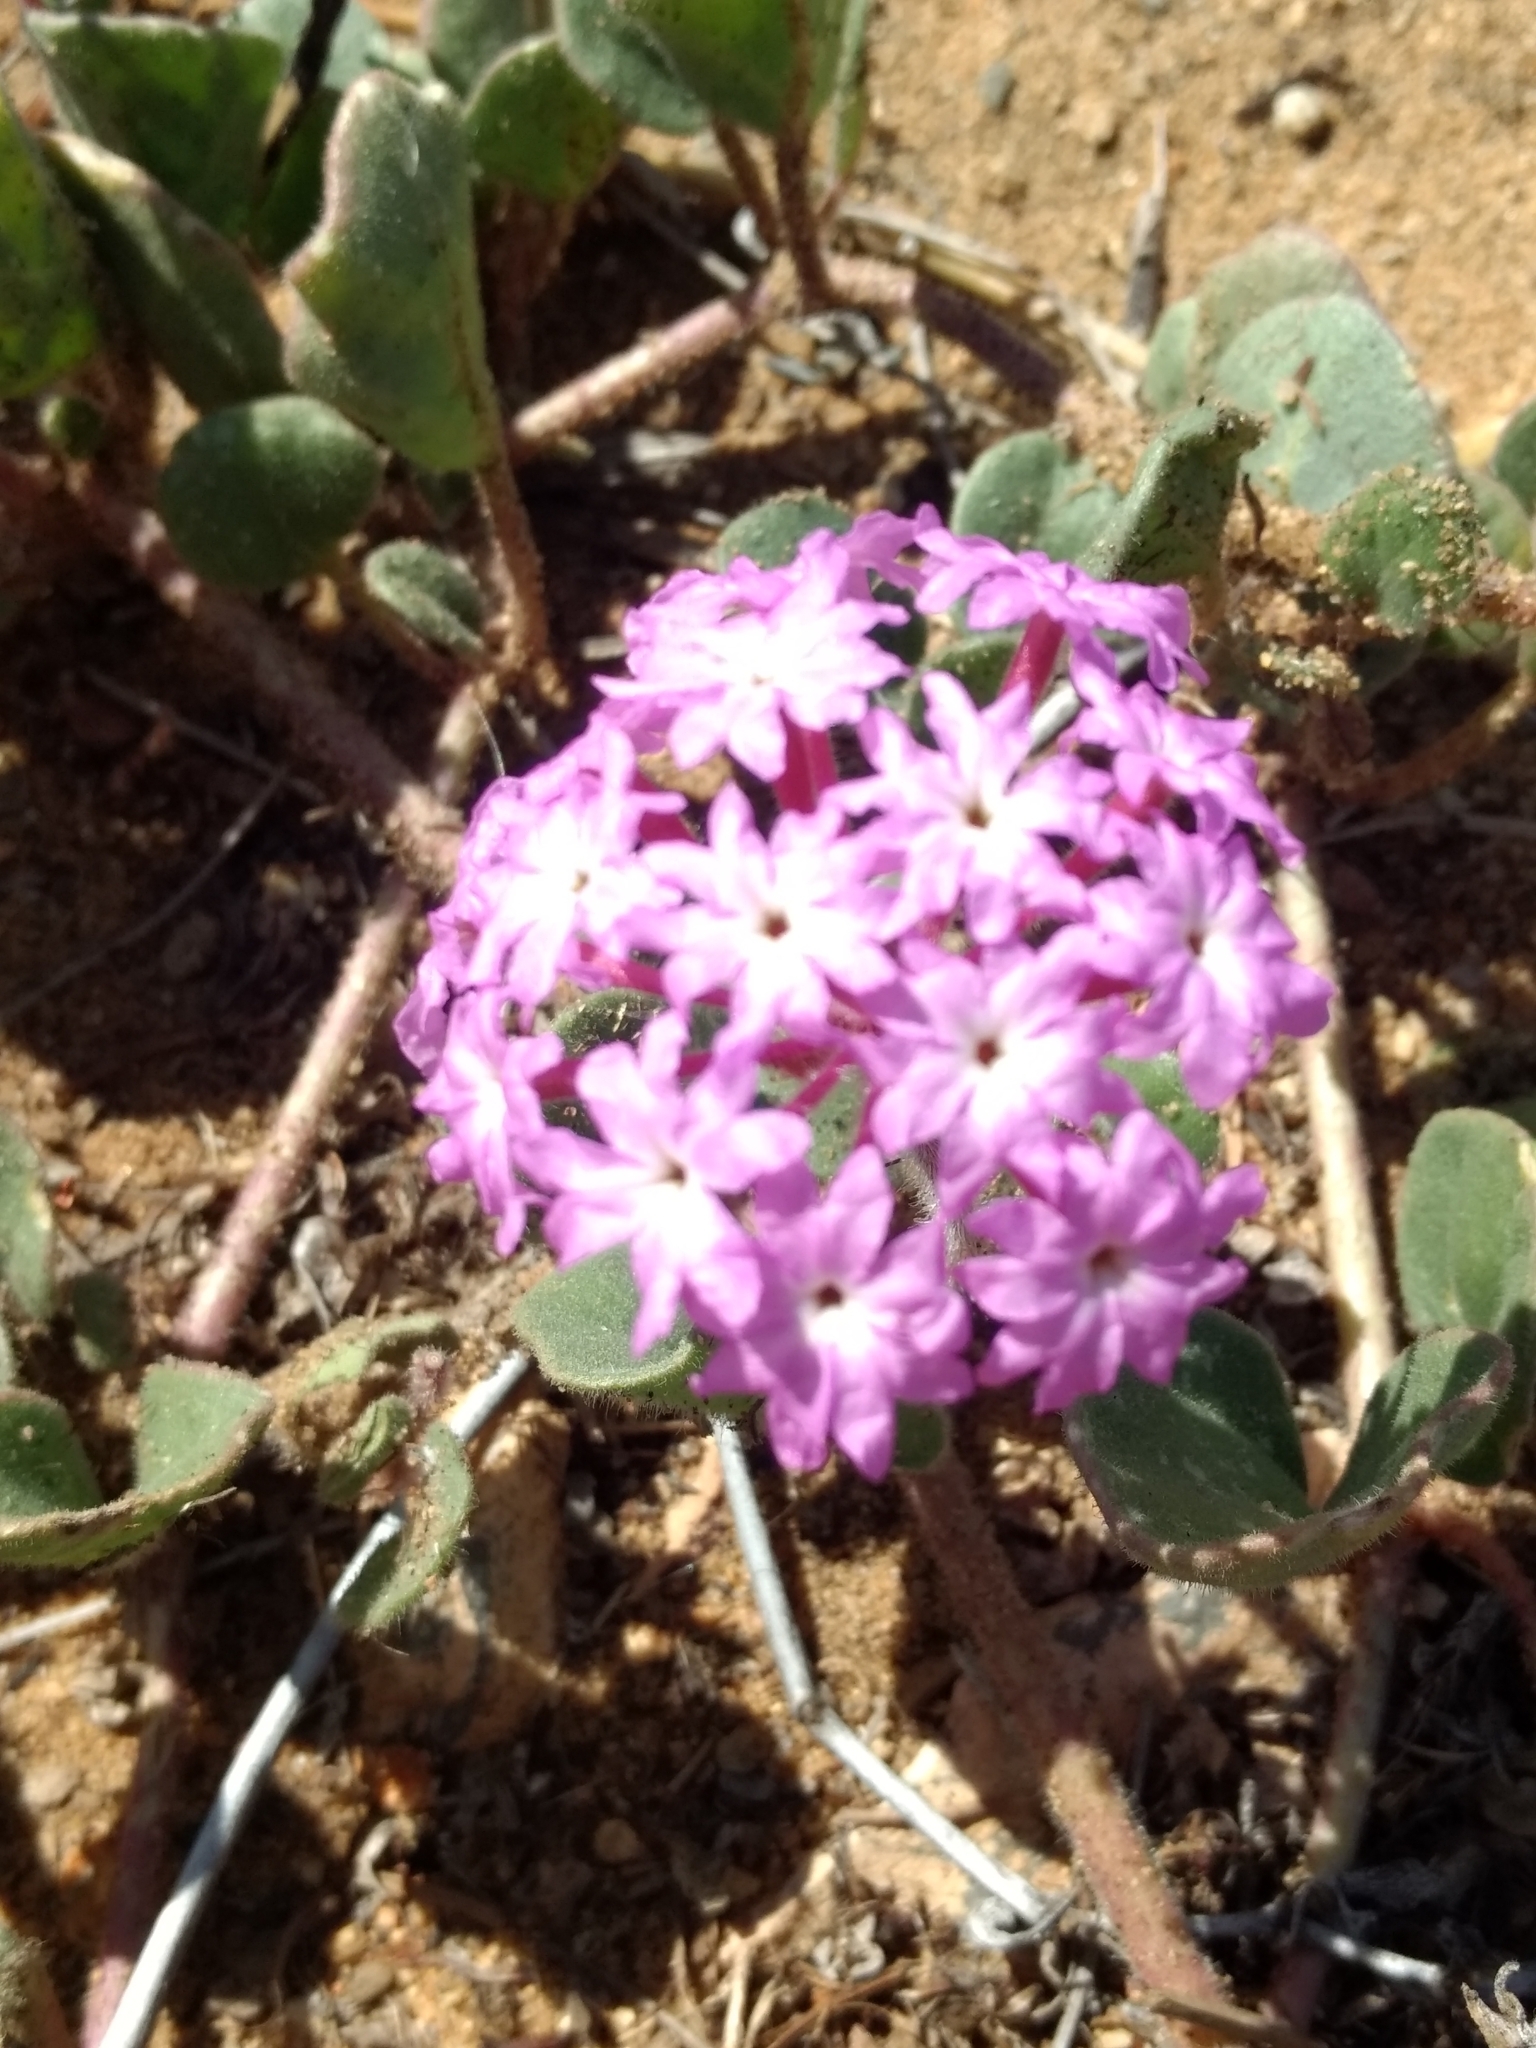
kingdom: Plantae
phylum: Tracheophyta
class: Magnoliopsida
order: Caryophyllales
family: Nyctaginaceae
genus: Abronia
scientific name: Abronia umbellata
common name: Sand-verbena
